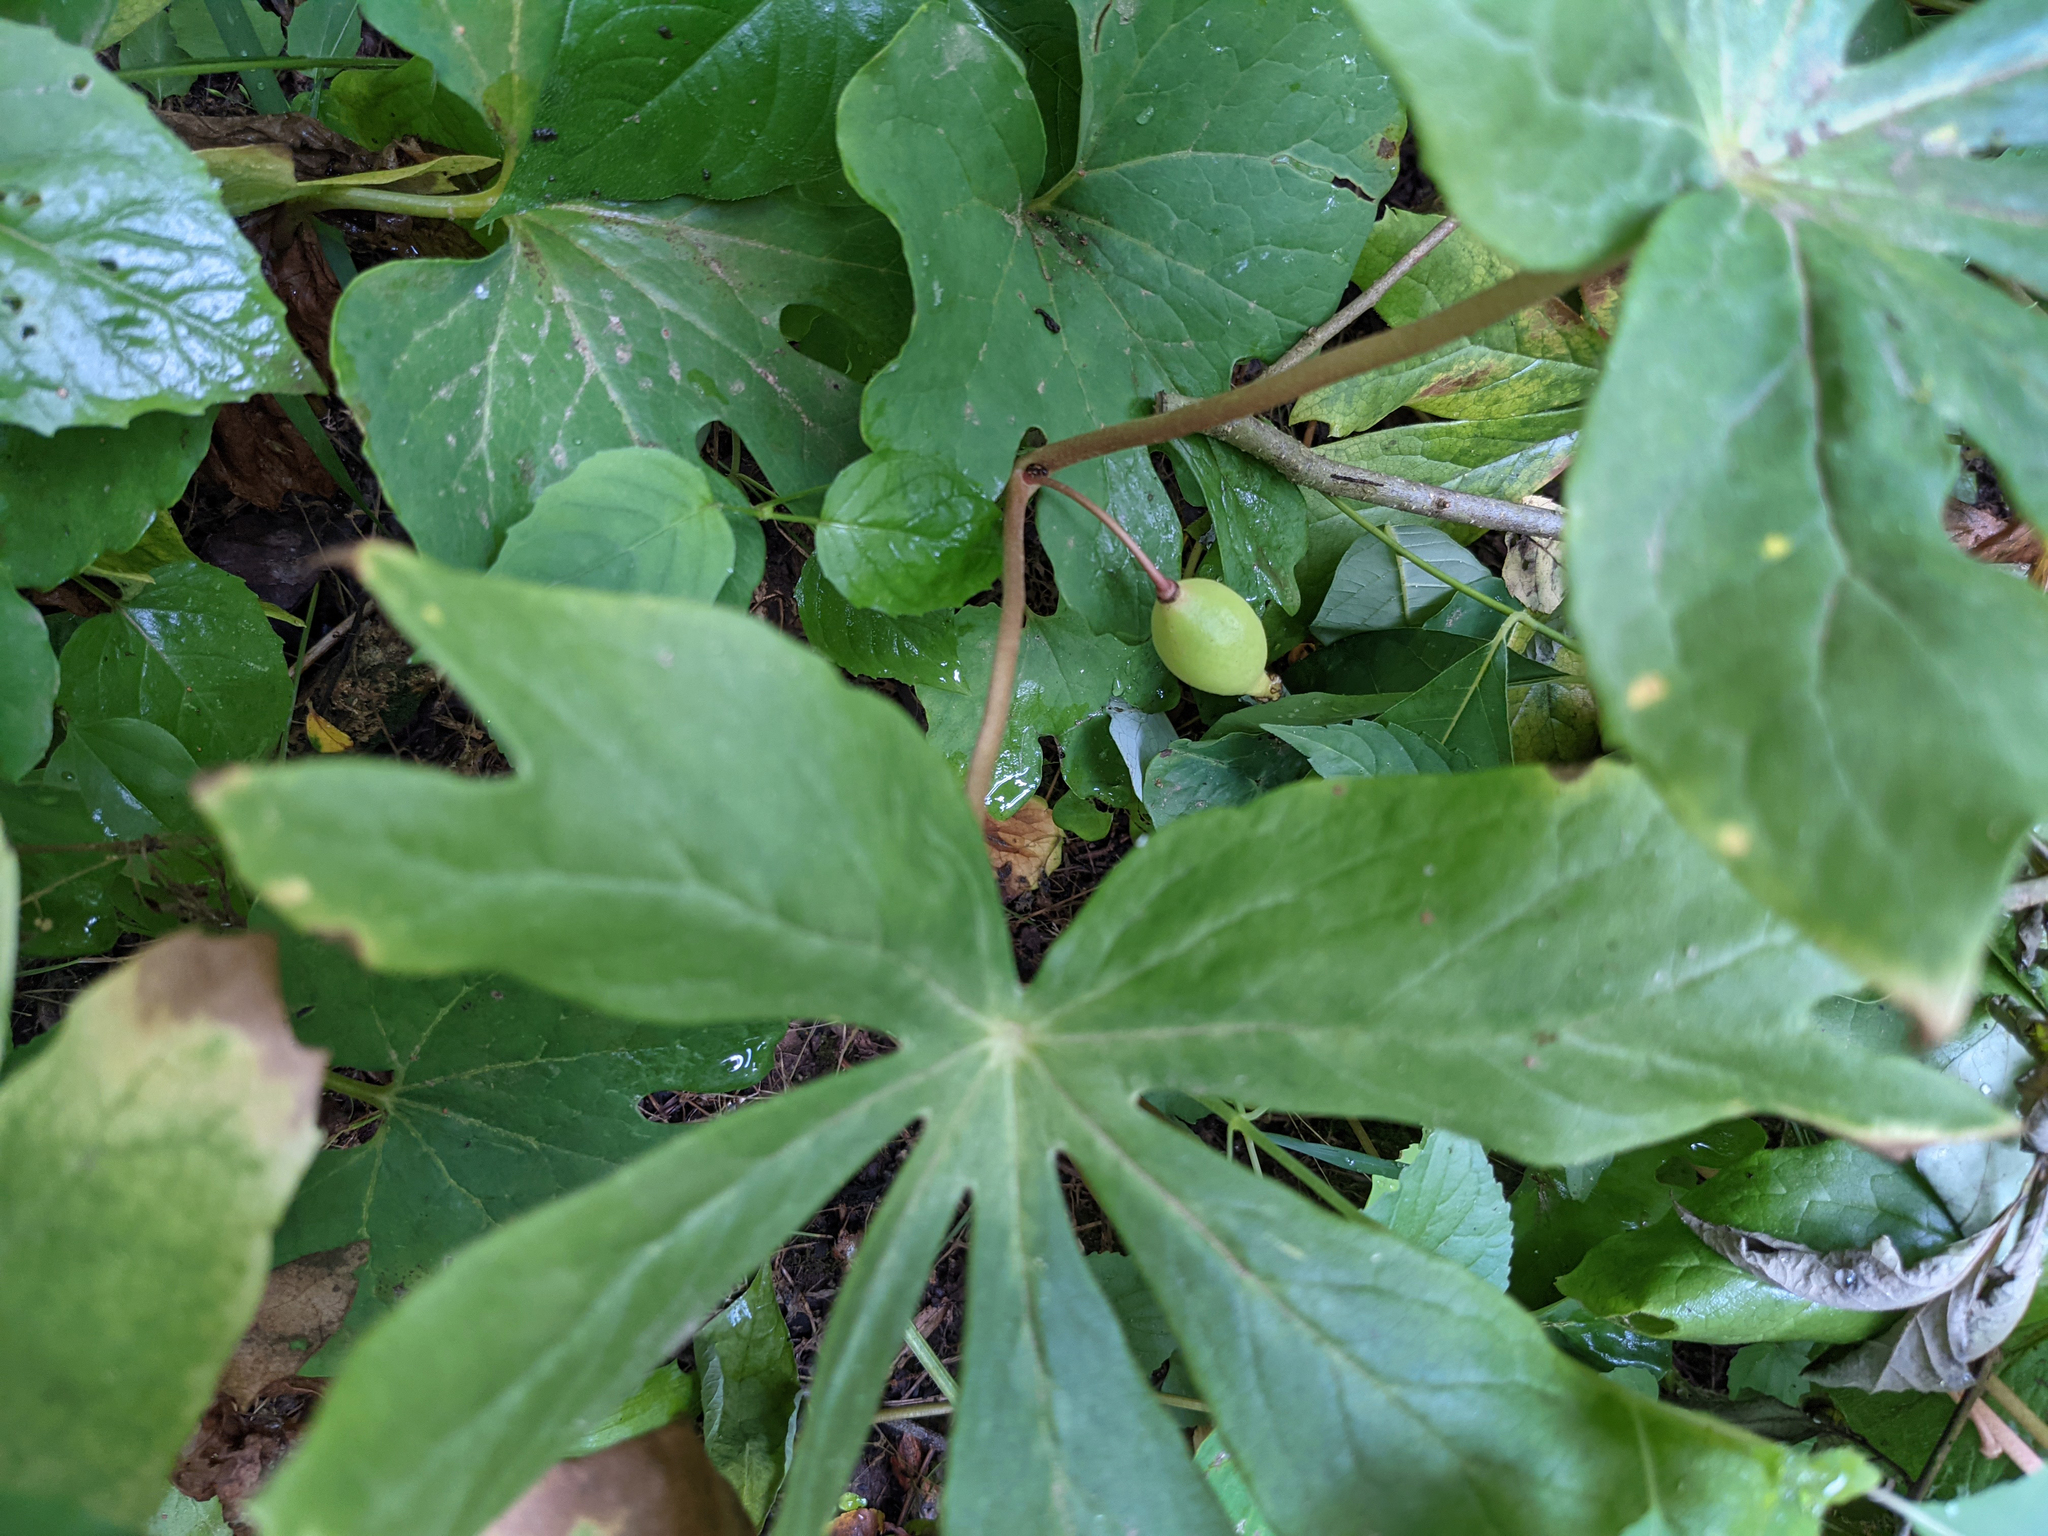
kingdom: Plantae
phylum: Tracheophyta
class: Magnoliopsida
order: Ranunculales
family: Berberidaceae
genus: Podophyllum
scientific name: Podophyllum peltatum
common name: Wild mandrake
